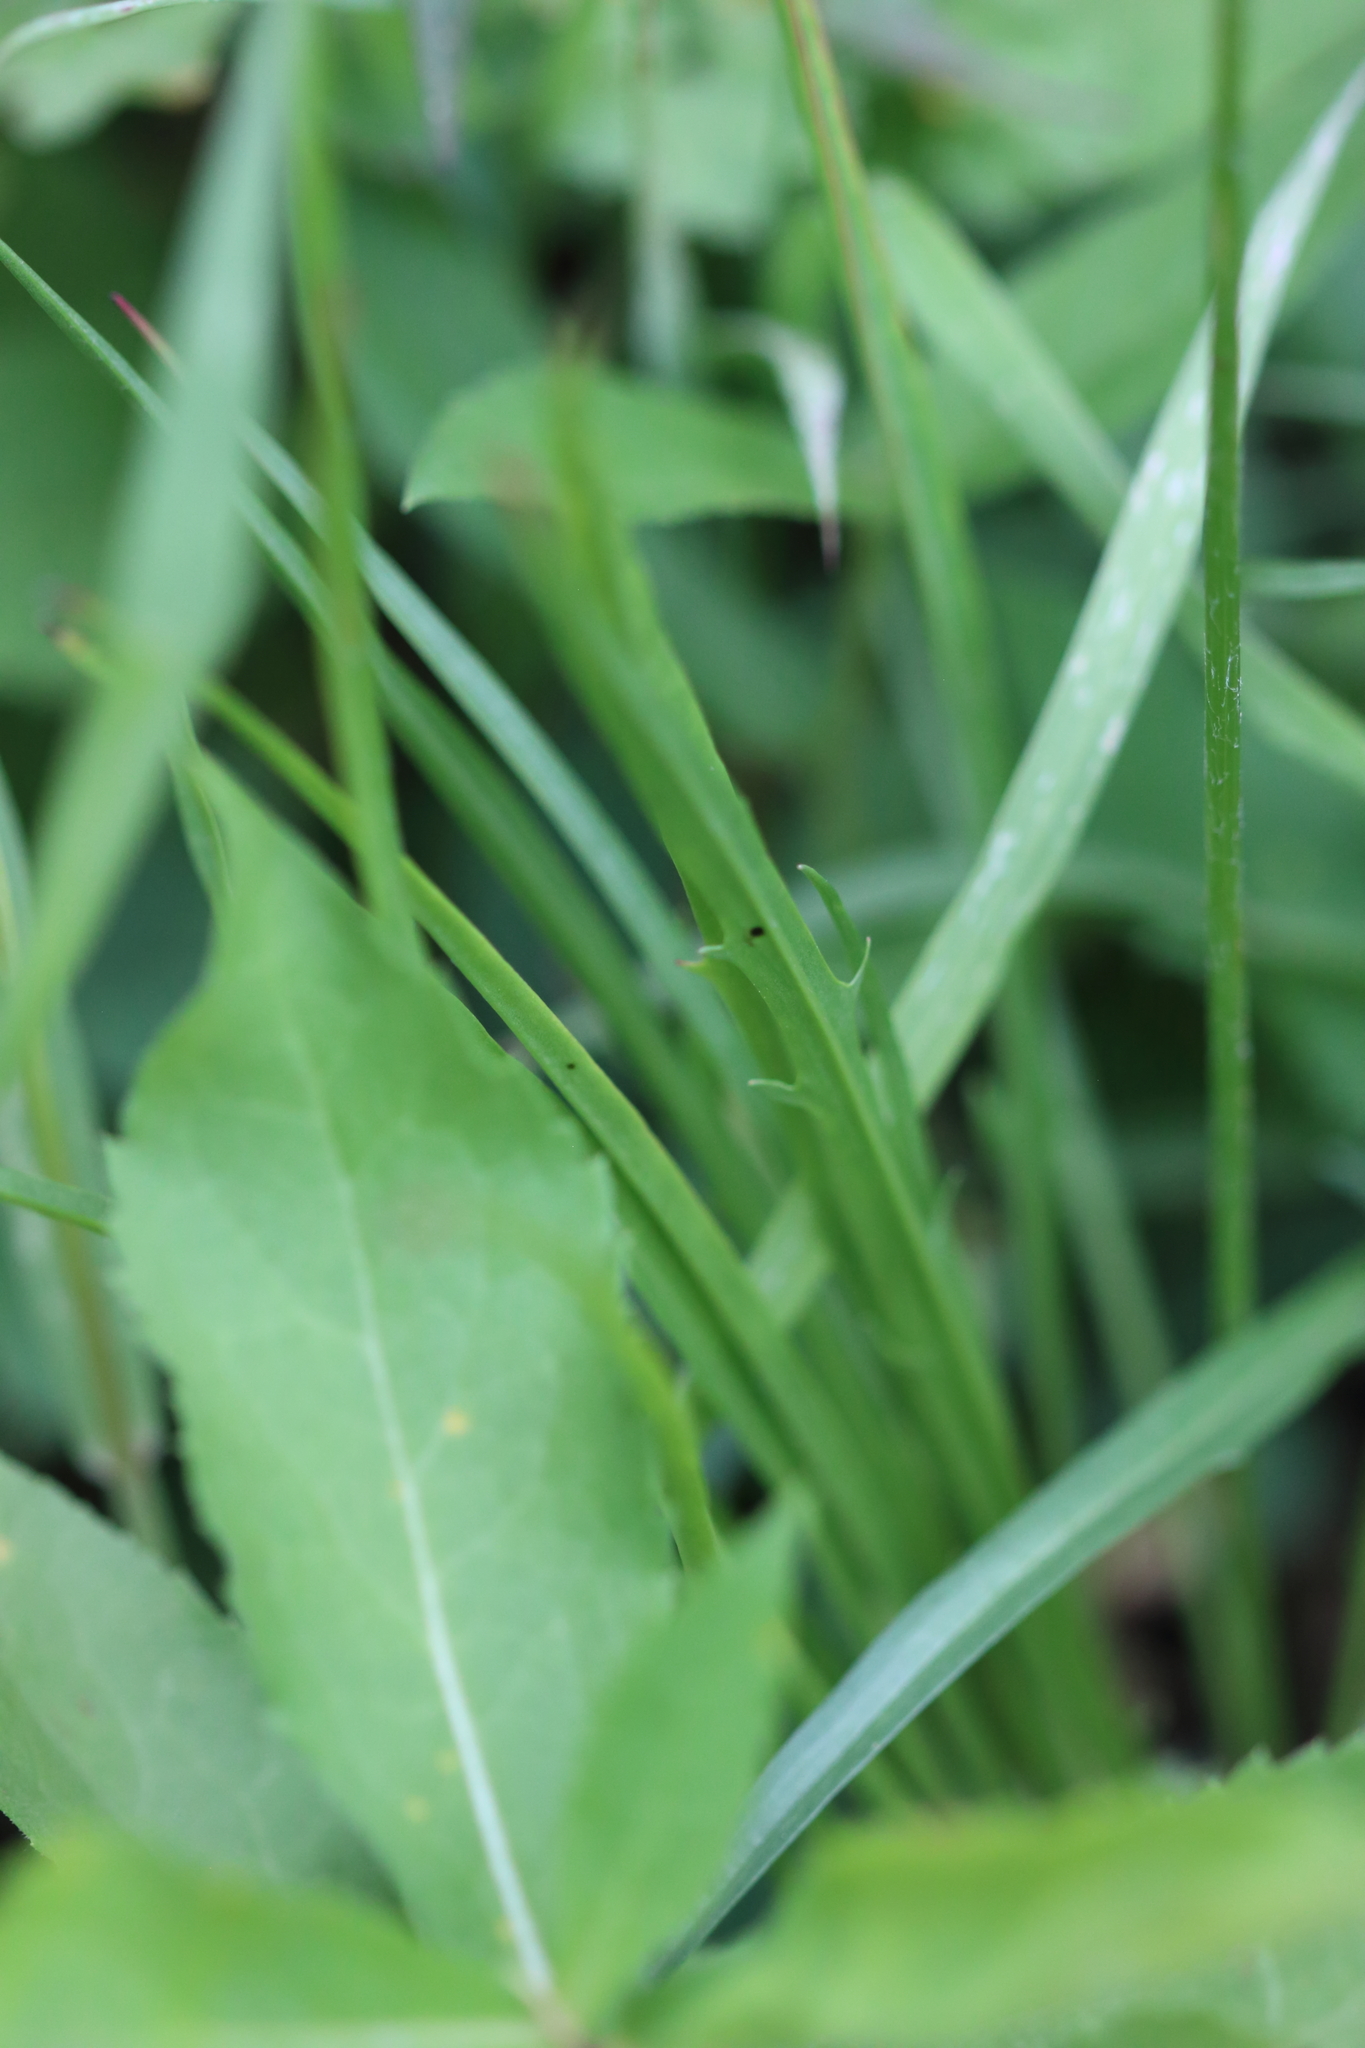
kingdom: Plantae
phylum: Tracheophyta
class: Magnoliopsida
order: Asterales
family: Asteraceae
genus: Agoseris
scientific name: Agoseris aurantiaca
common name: Mountain agoseris
